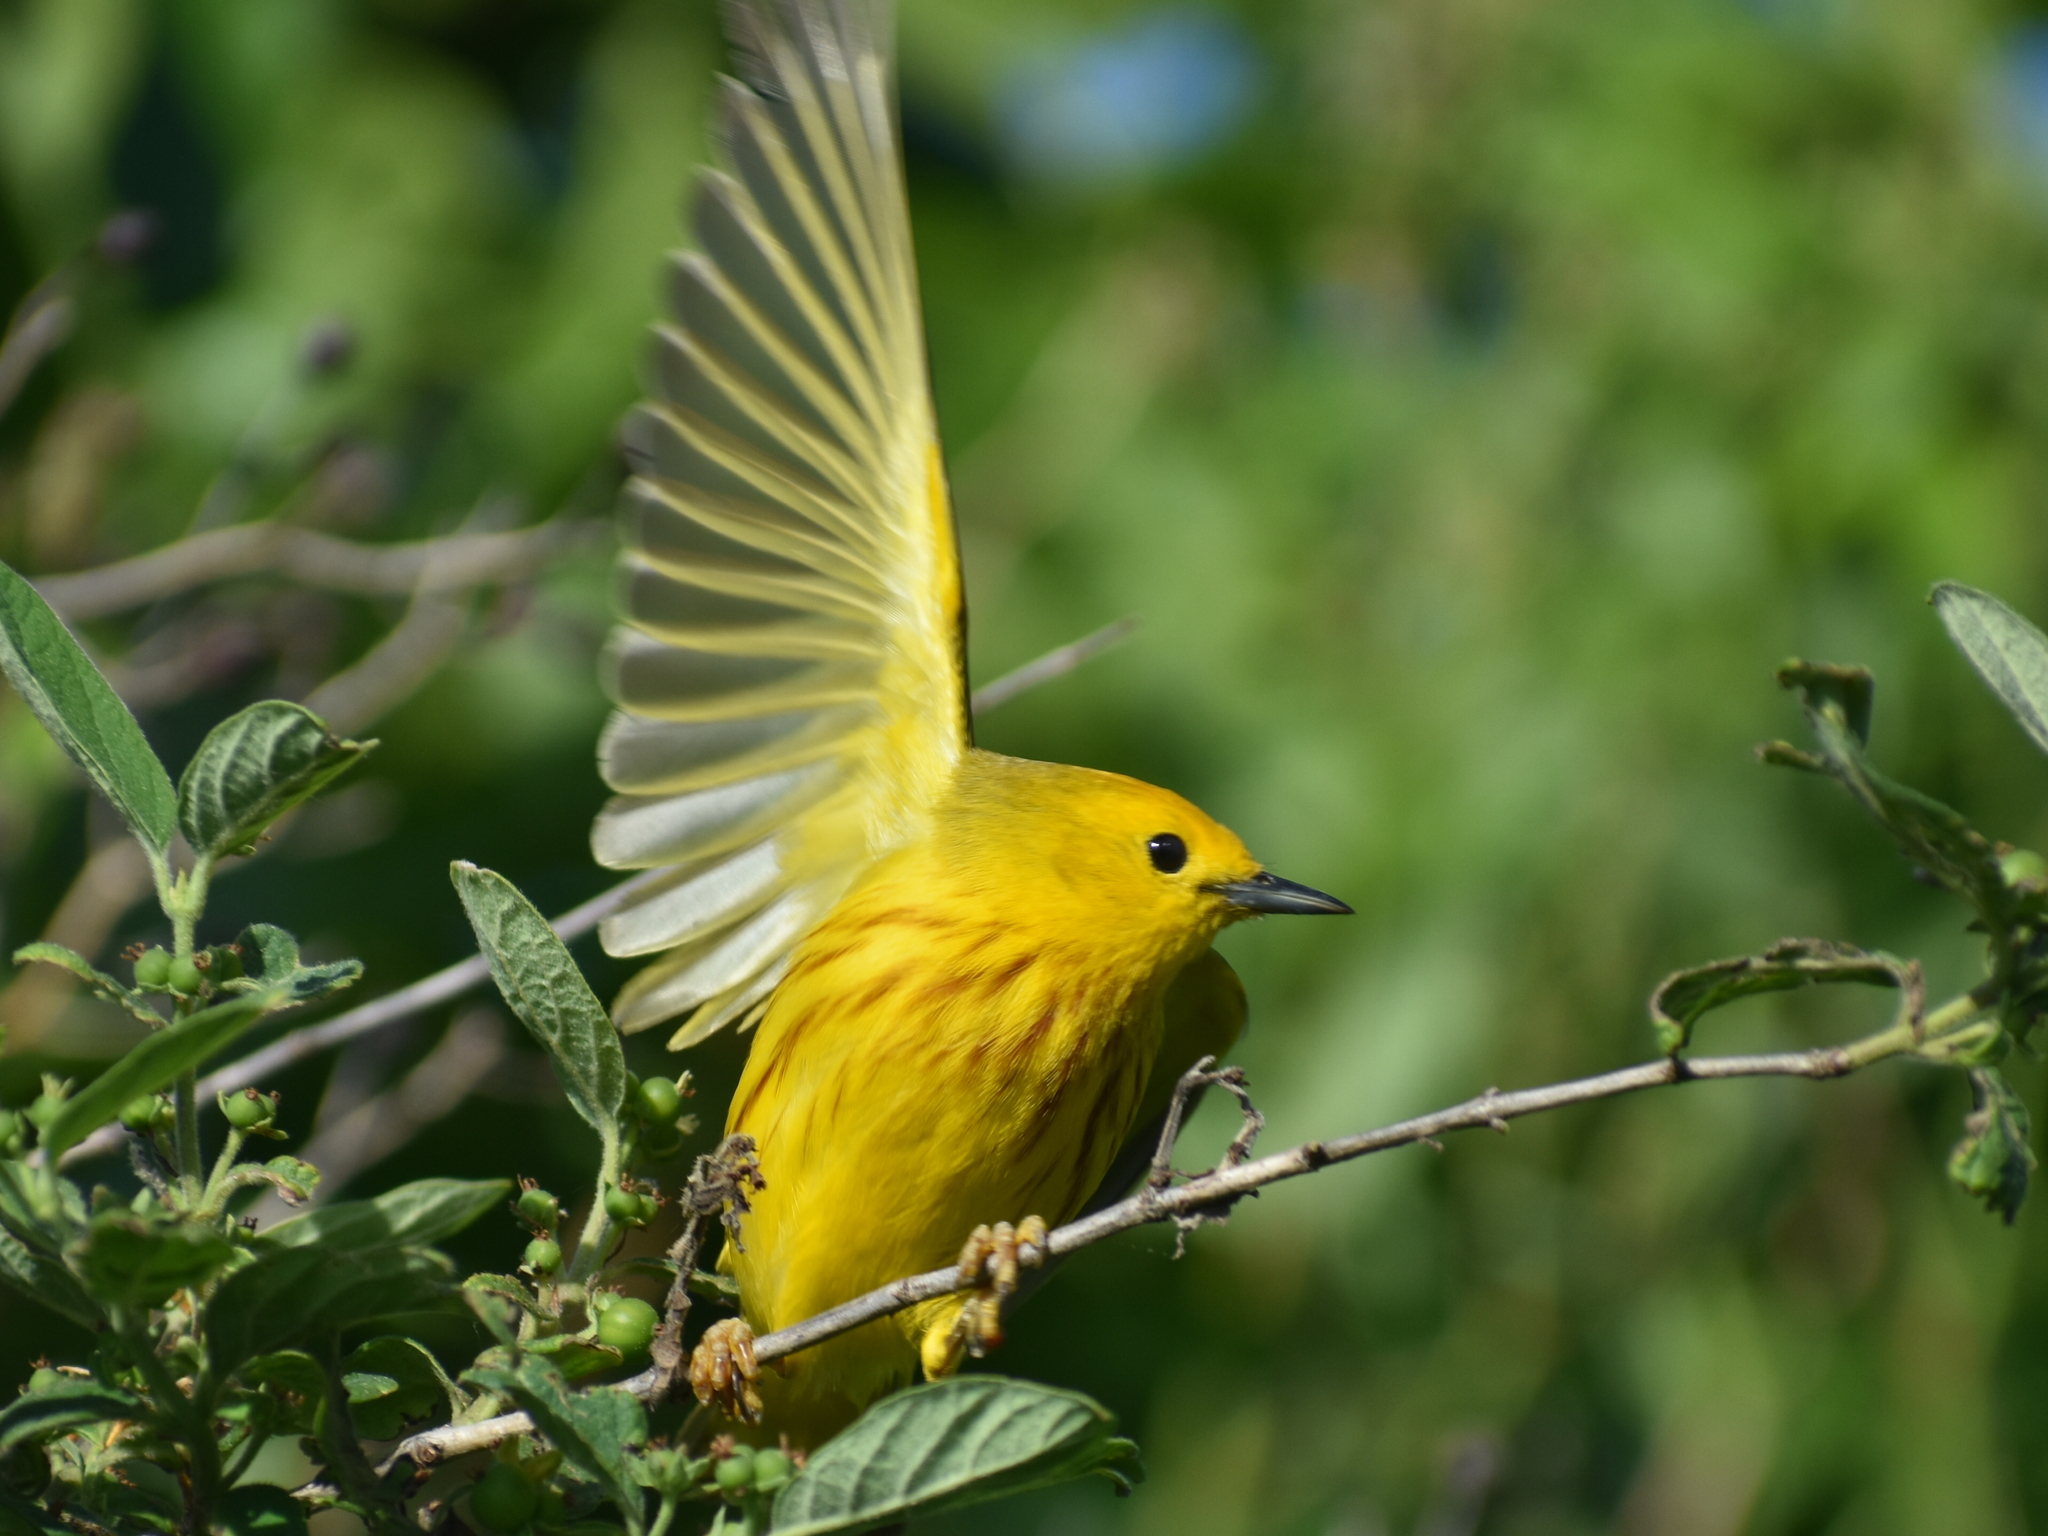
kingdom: Animalia
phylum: Chordata
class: Aves
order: Passeriformes
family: Parulidae
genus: Setophaga
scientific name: Setophaga petechia
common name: Yellow warbler
